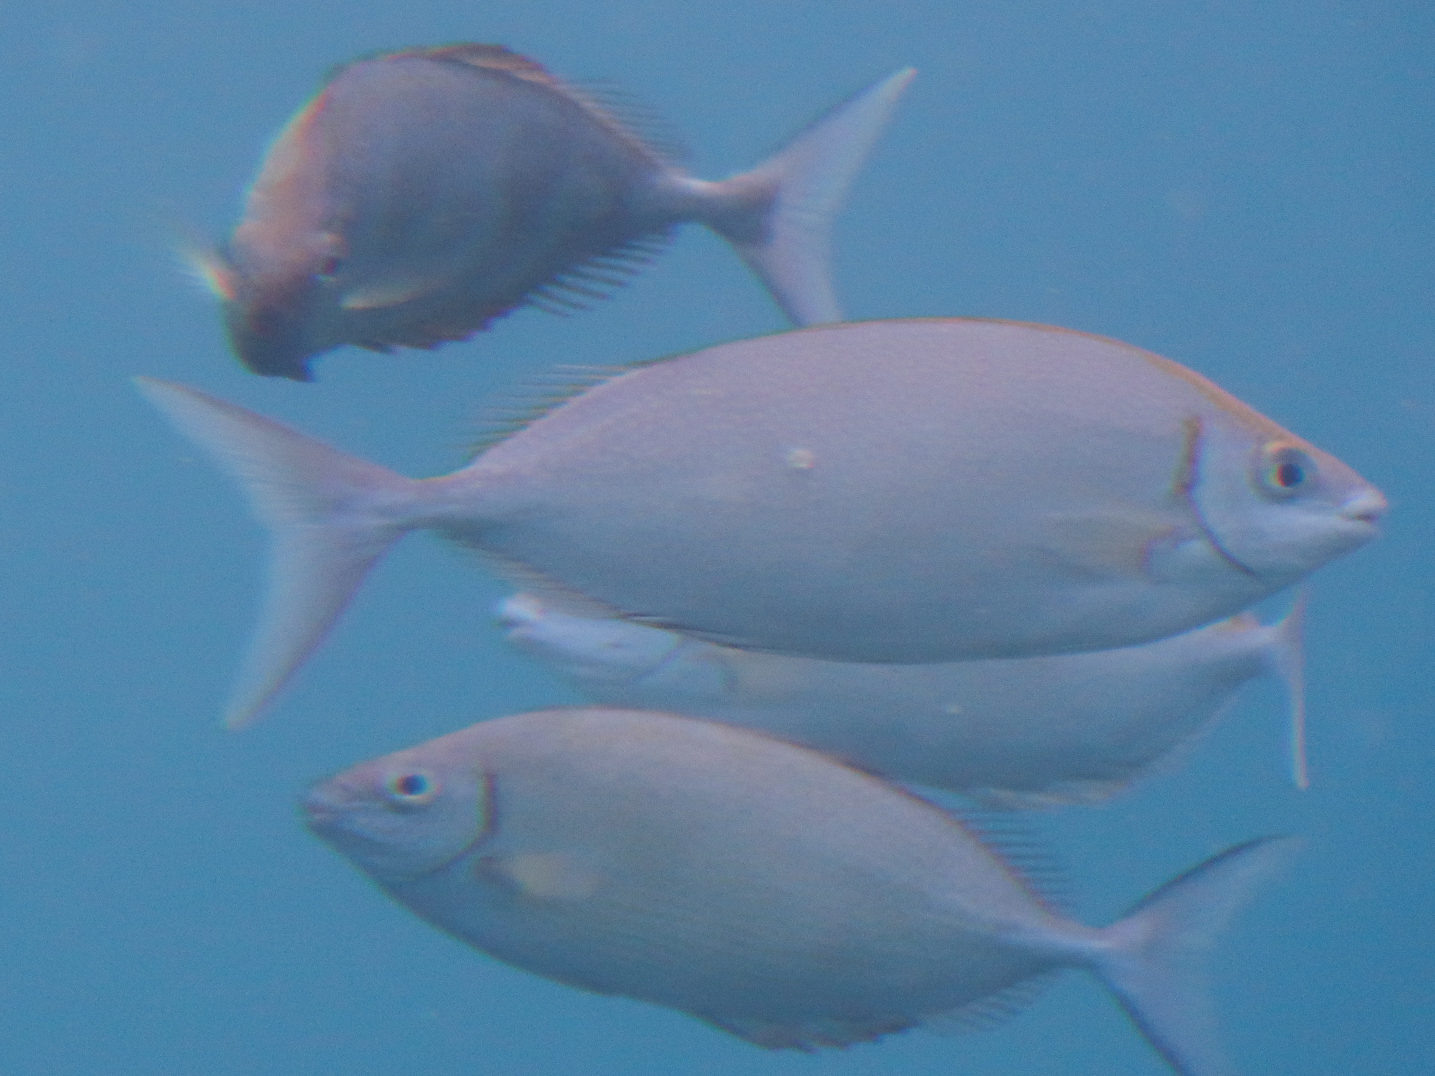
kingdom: Animalia
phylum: Chordata
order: Perciformes
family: Siganidae
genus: Siganus
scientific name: Siganus argenteus
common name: Forktail rabbitfish
